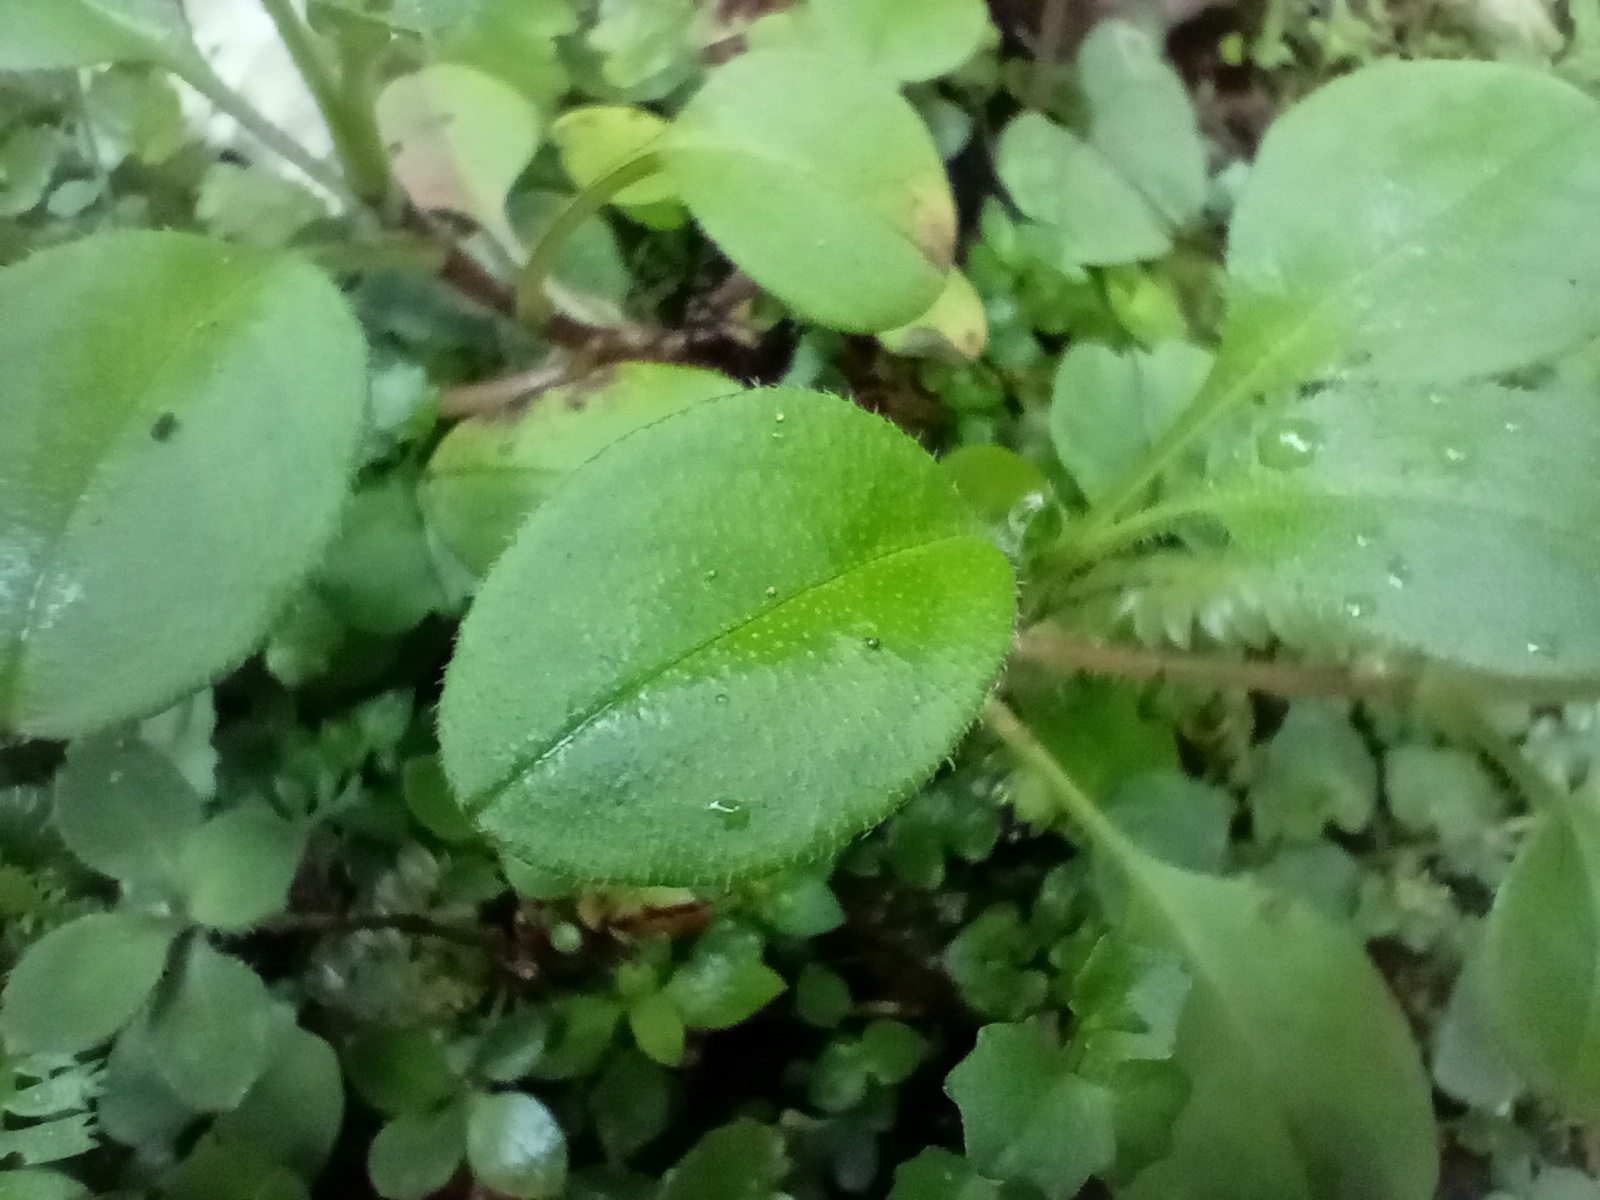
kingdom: Plantae
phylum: Tracheophyta
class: Magnoliopsida
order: Boraginales
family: Boraginaceae
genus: Myosotis
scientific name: Myosotis forsteri
